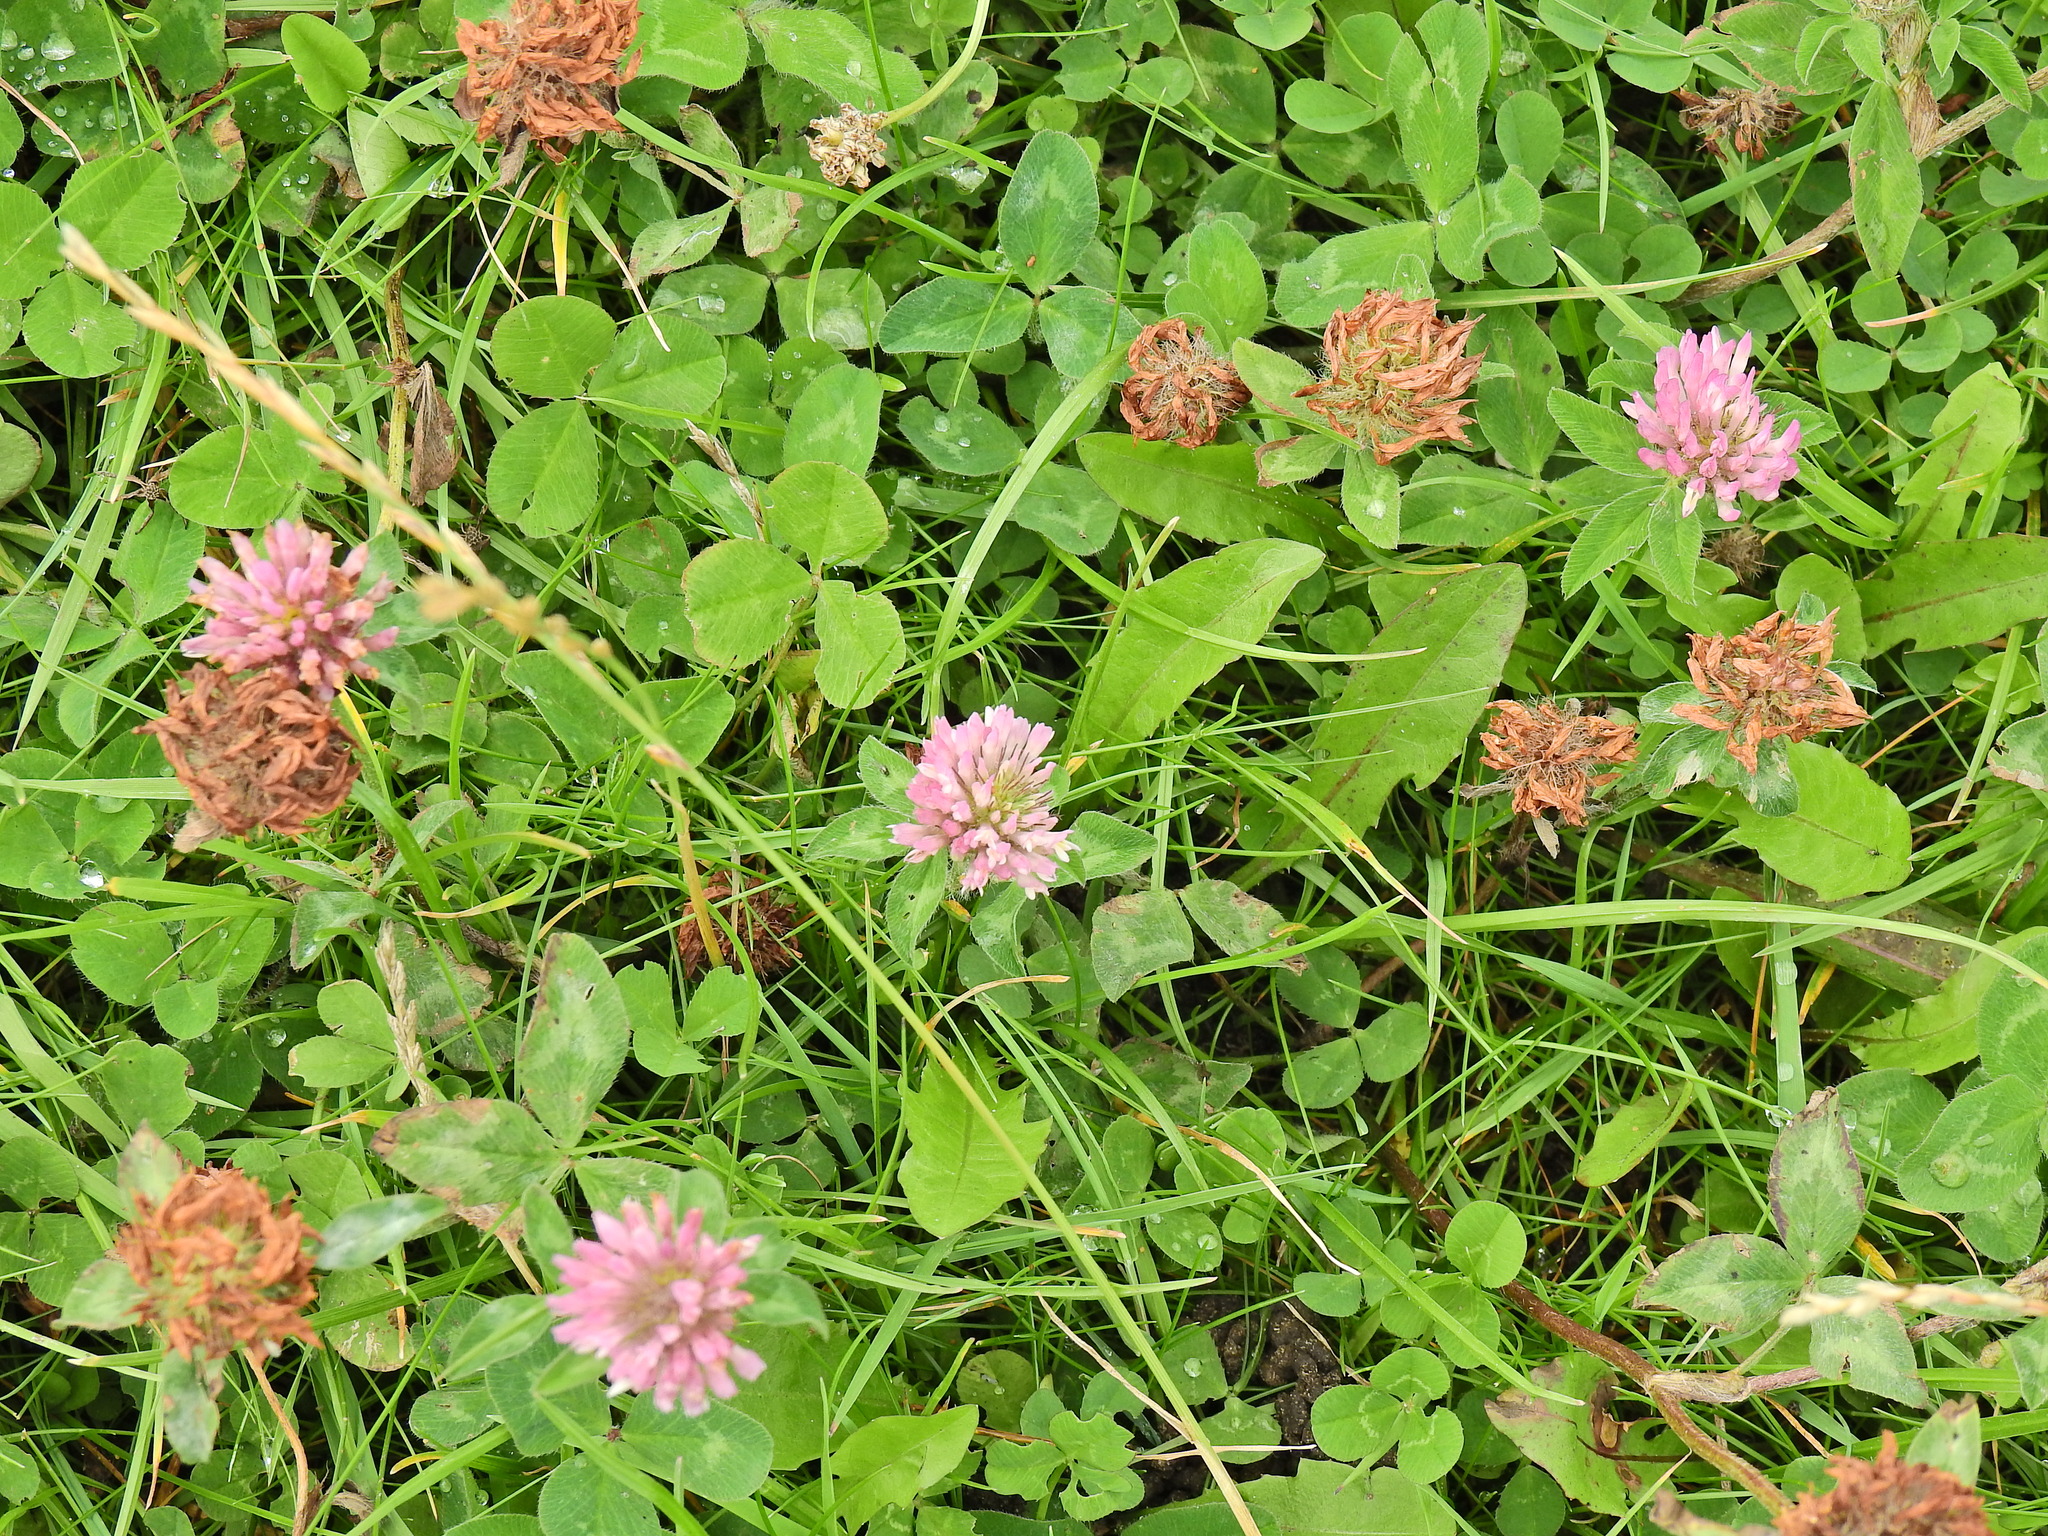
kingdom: Plantae
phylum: Tracheophyta
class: Magnoliopsida
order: Fabales
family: Fabaceae
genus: Trifolium
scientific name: Trifolium pratense
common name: Red clover
